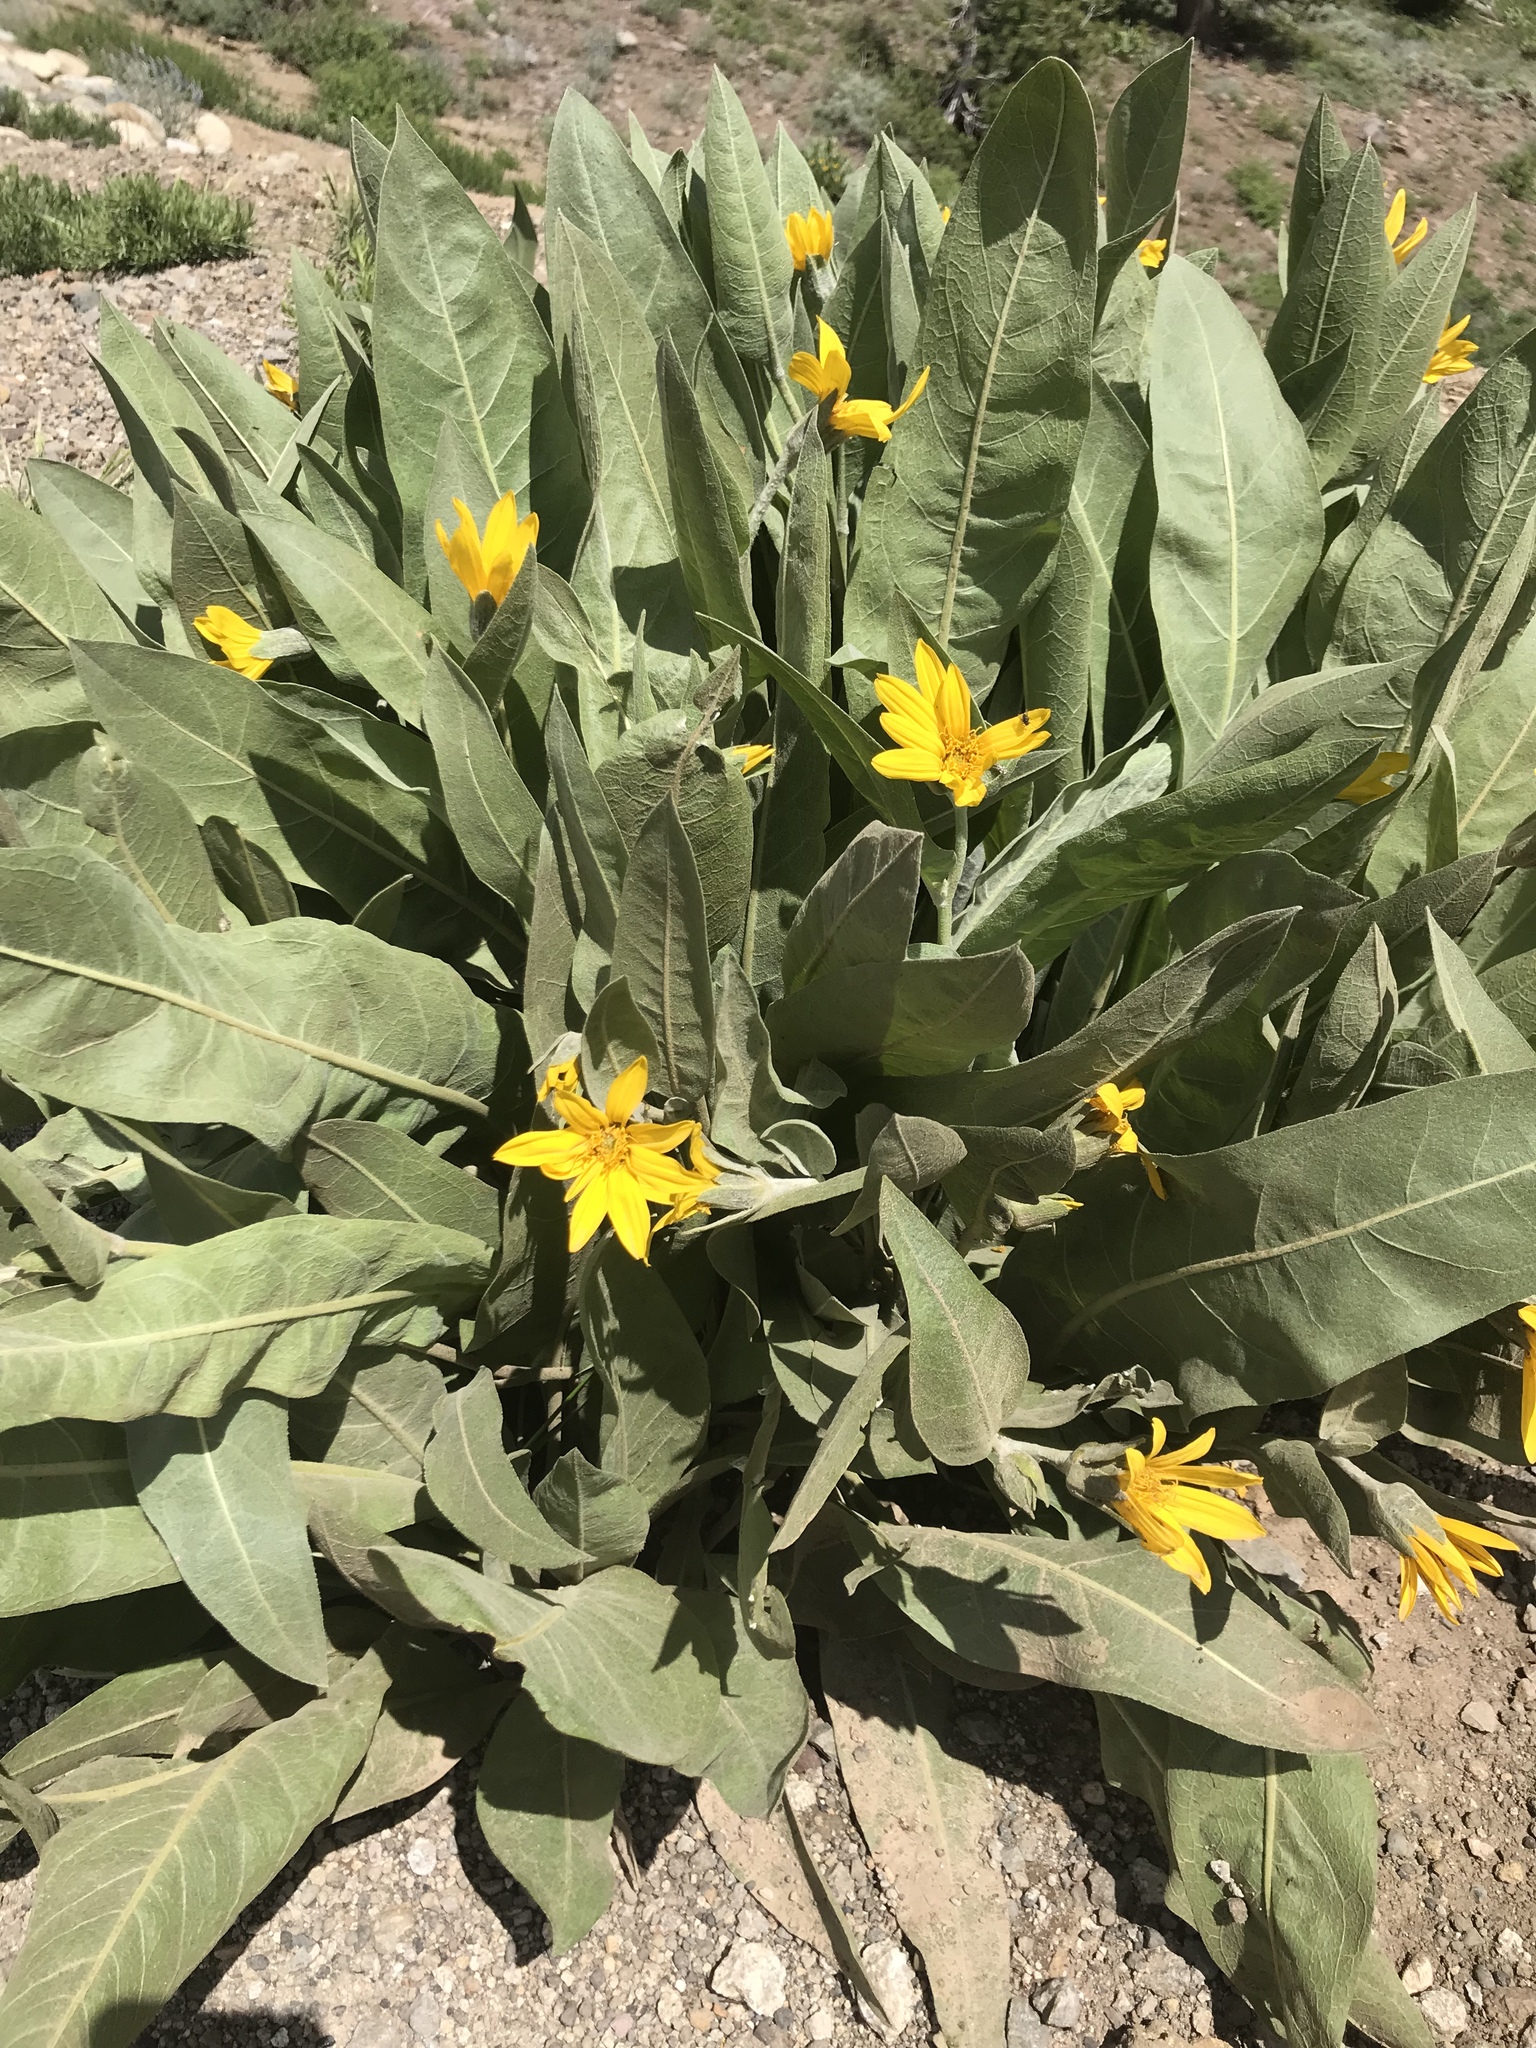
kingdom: Plantae
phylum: Tracheophyta
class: Magnoliopsida
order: Asterales
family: Asteraceae
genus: Wyethia
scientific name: Wyethia mollis
